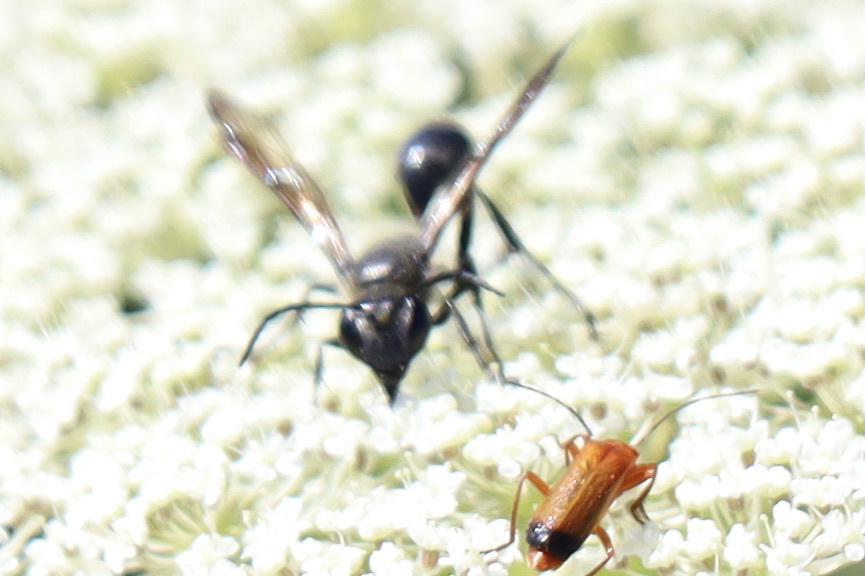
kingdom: Animalia
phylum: Arthropoda
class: Insecta
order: Hymenoptera
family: Sphecidae
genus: Isodontia
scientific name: Isodontia mexicana
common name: Mud dauber
